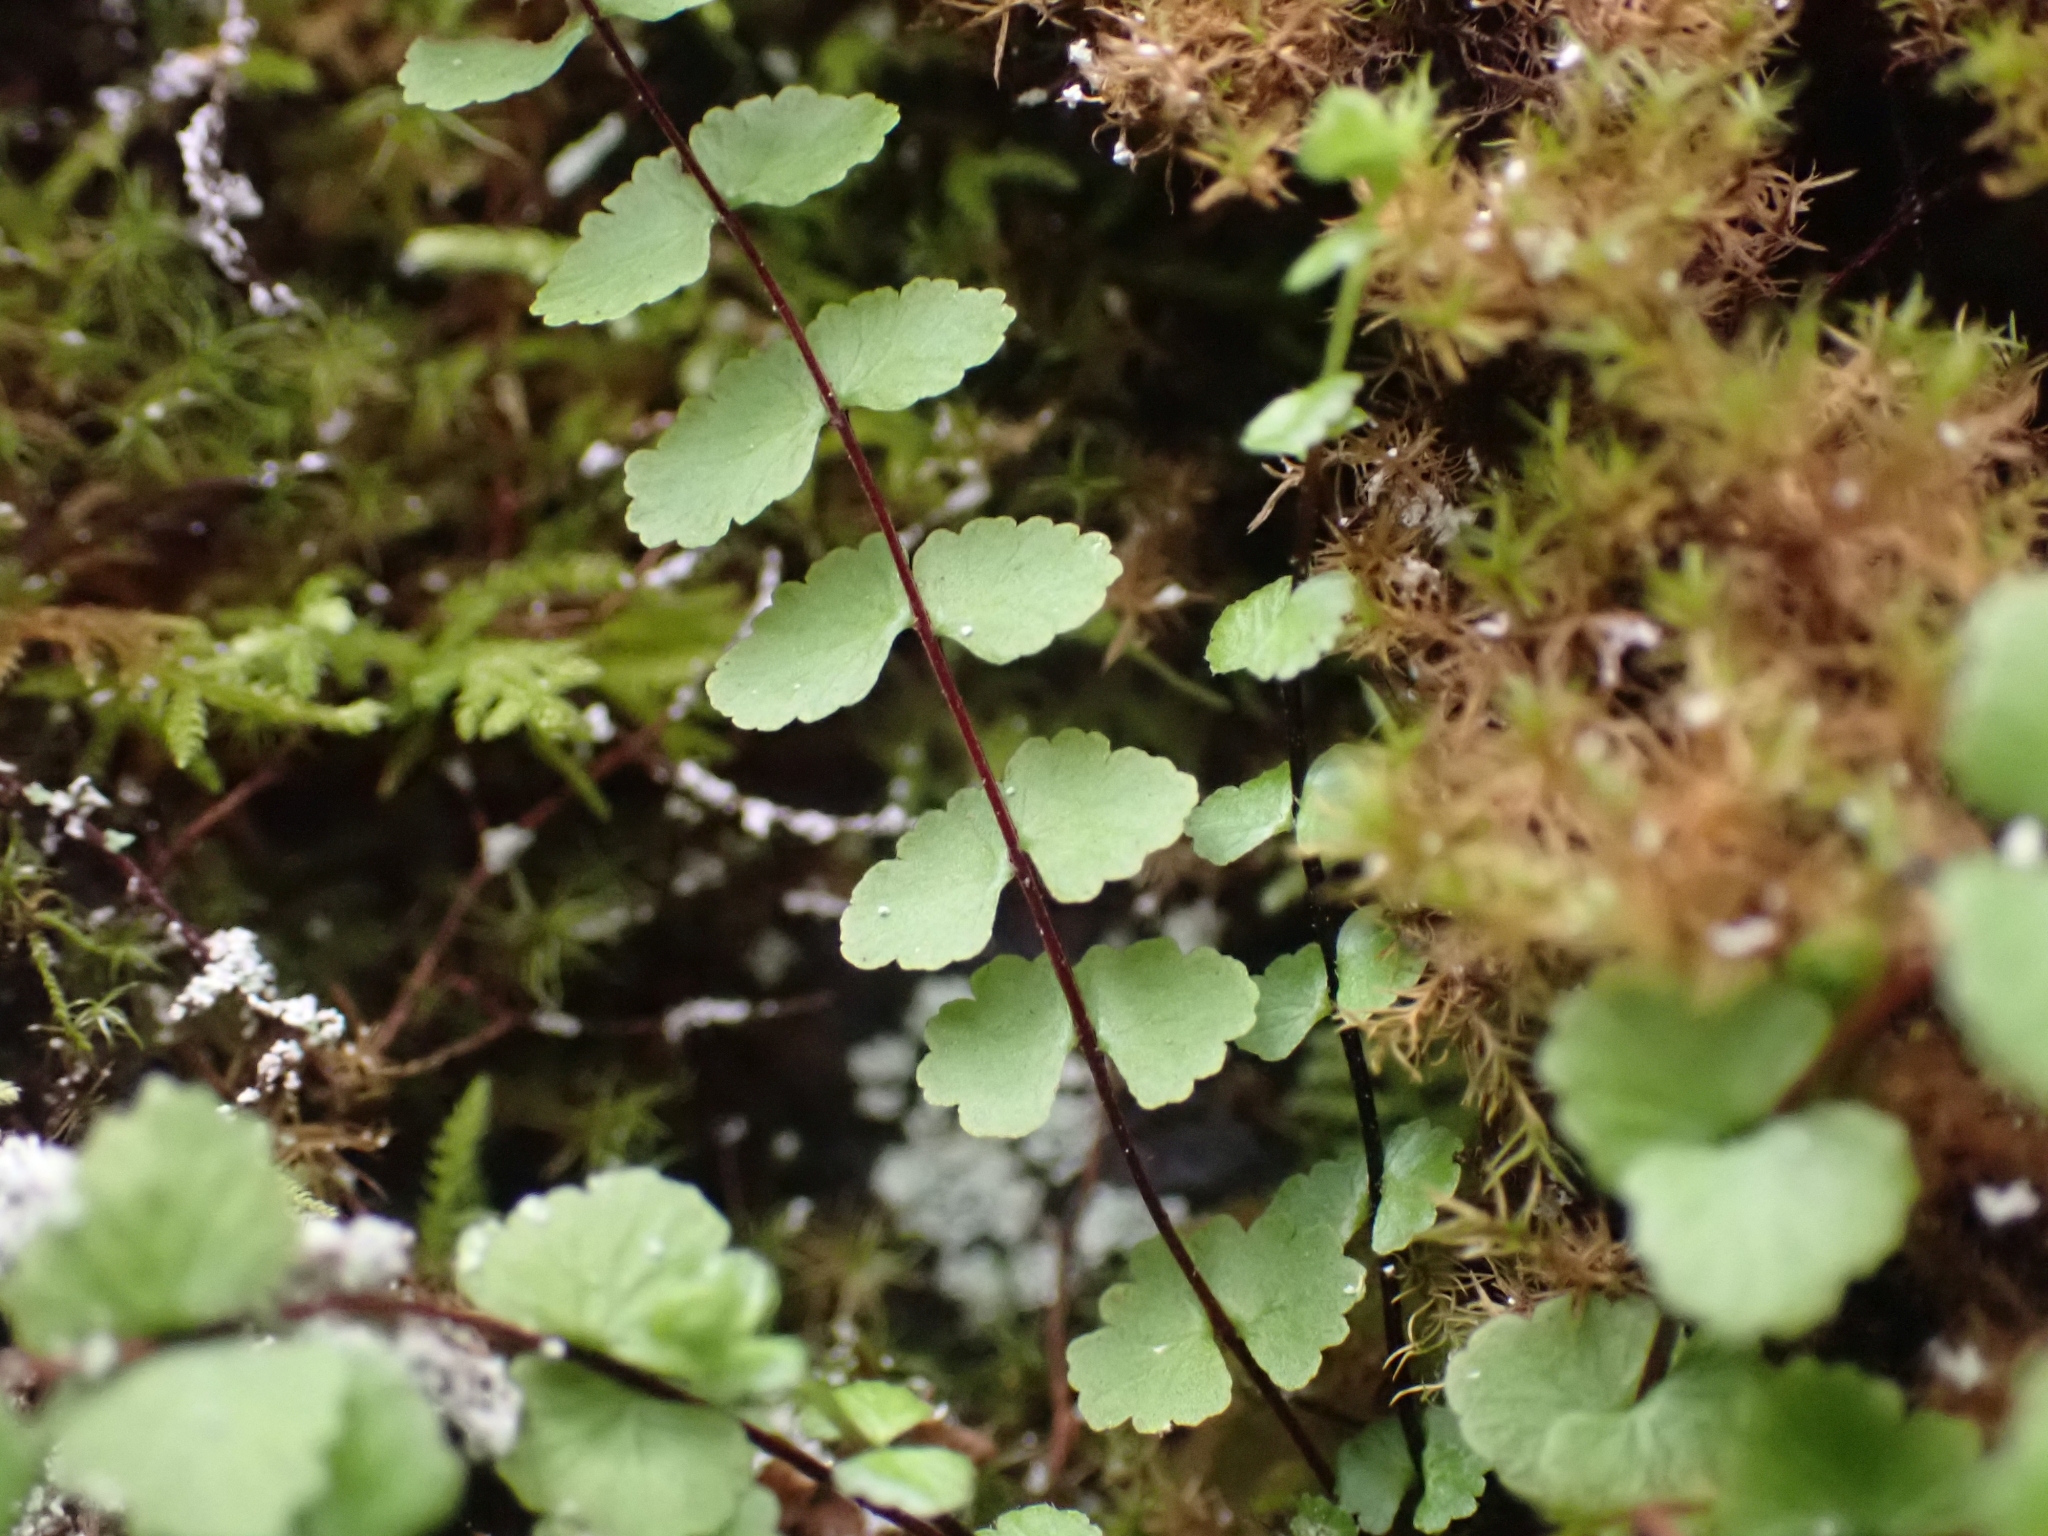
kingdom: Plantae
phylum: Tracheophyta
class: Polypodiopsida
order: Polypodiales
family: Aspleniaceae
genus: Asplenium
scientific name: Asplenium trichomanes
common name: Maidenhair spleenwort
